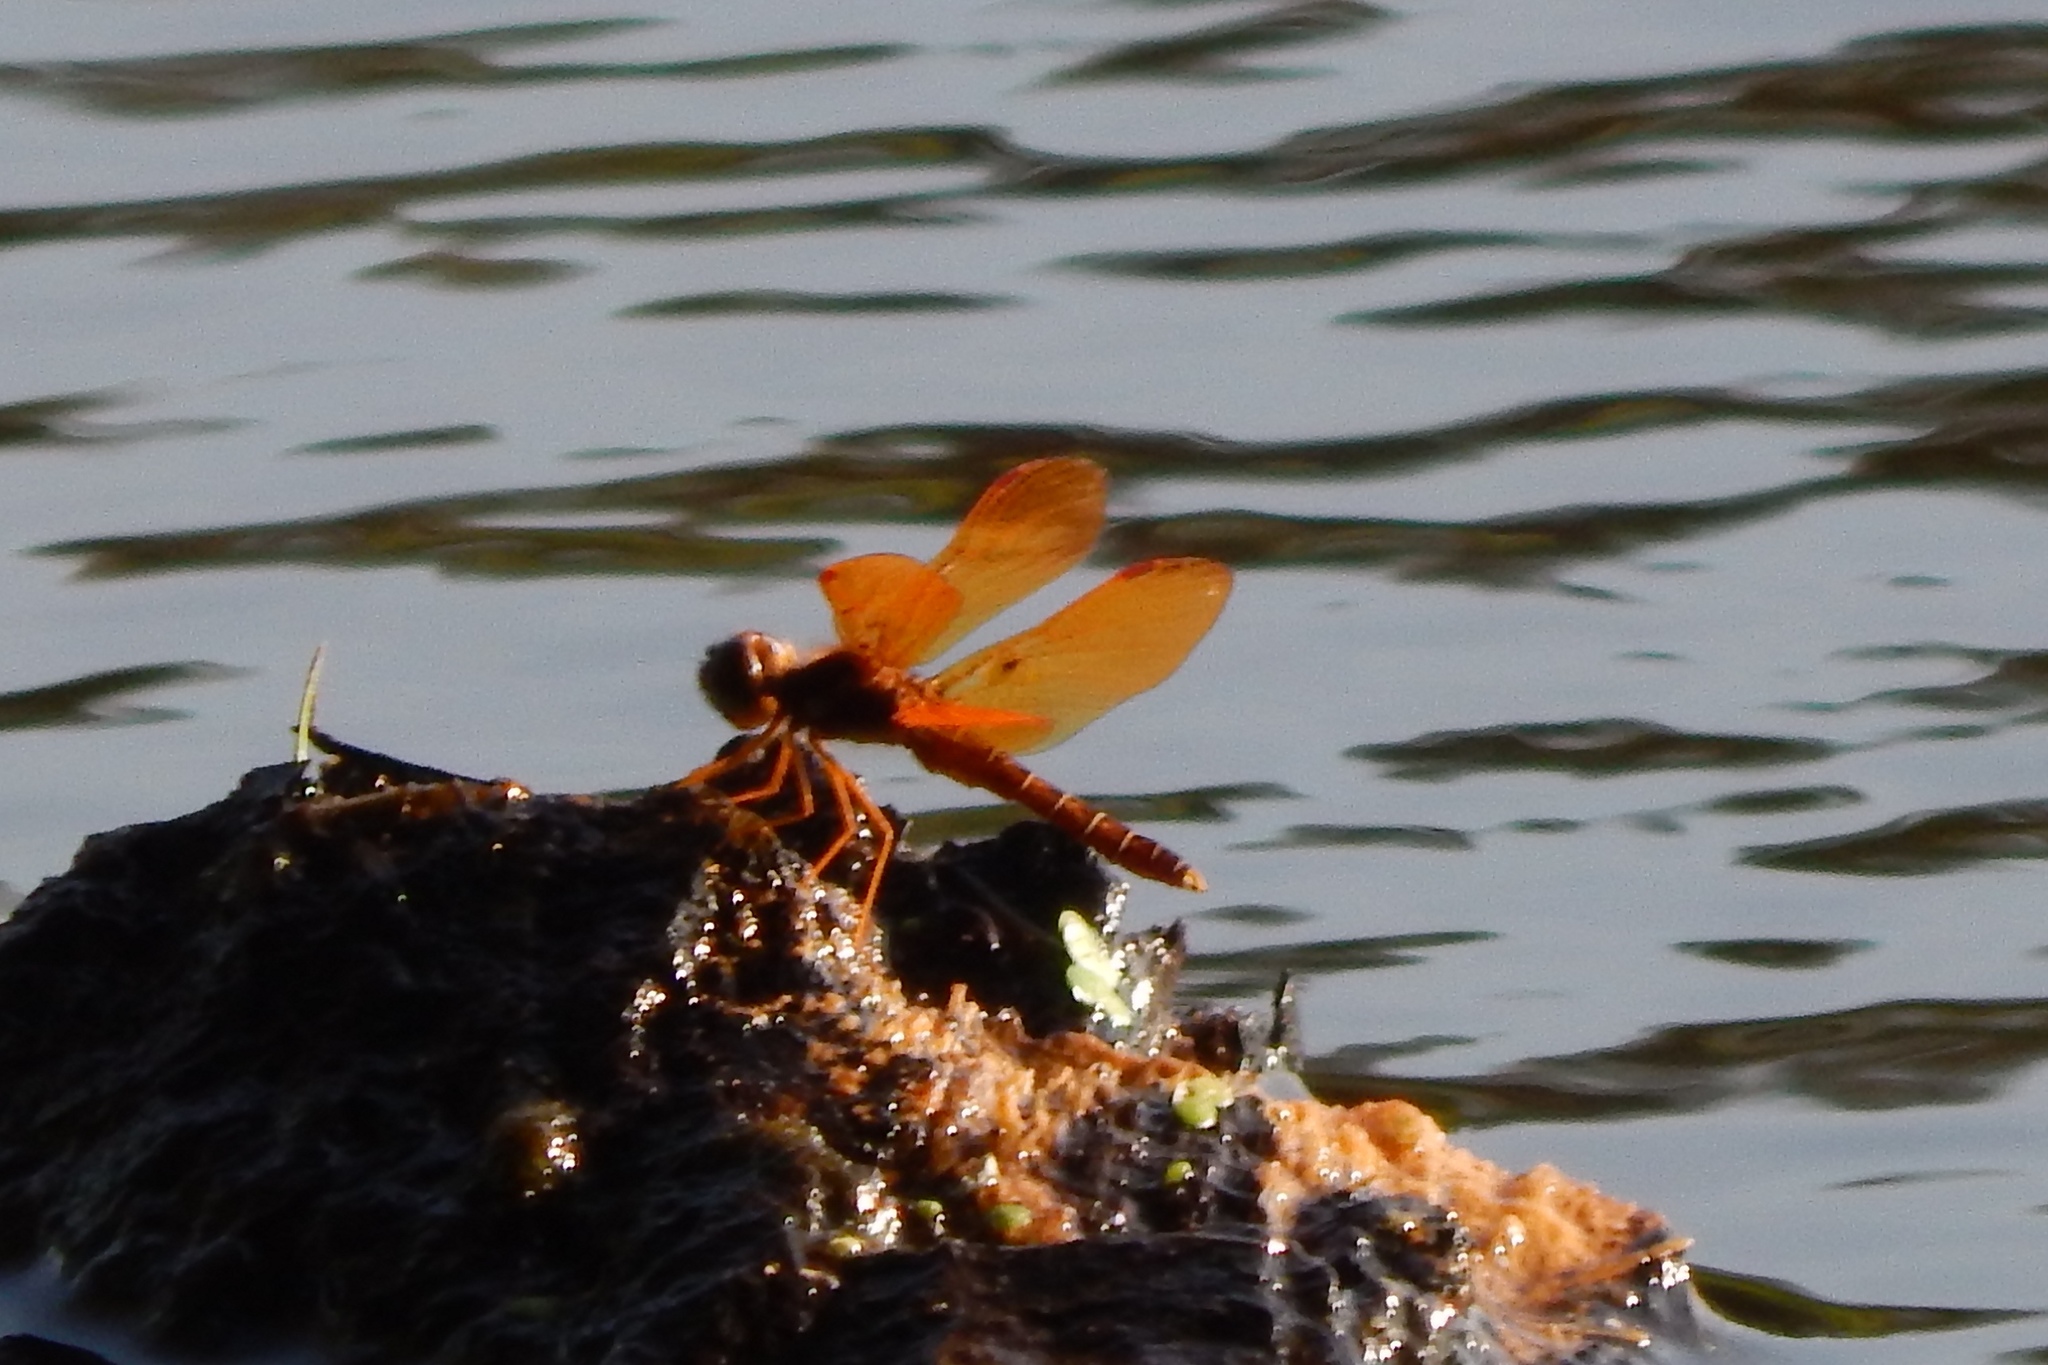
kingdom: Animalia
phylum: Arthropoda
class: Insecta
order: Odonata
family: Libellulidae
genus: Perithemis
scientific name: Perithemis tenera
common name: Eastern amberwing
